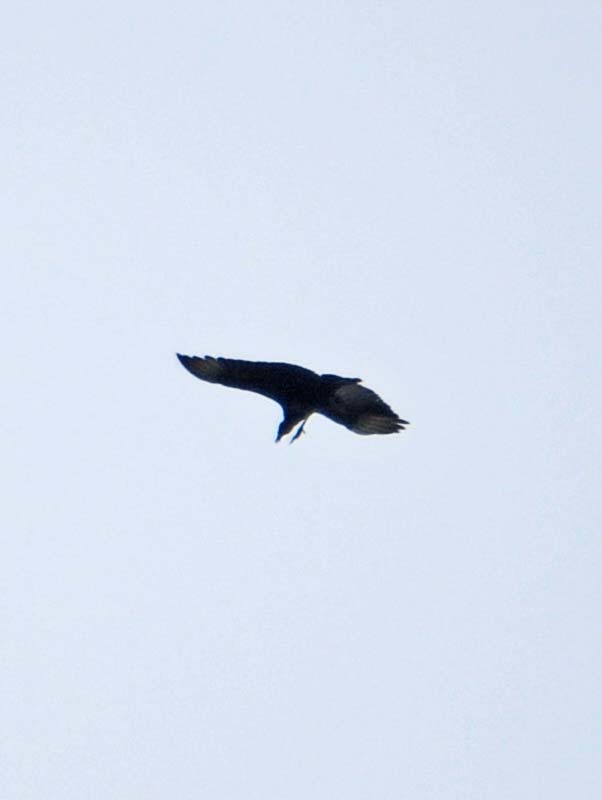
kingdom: Animalia
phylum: Chordata
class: Aves
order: Accipitriformes
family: Cathartidae
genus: Coragyps
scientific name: Coragyps atratus
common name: Black vulture
